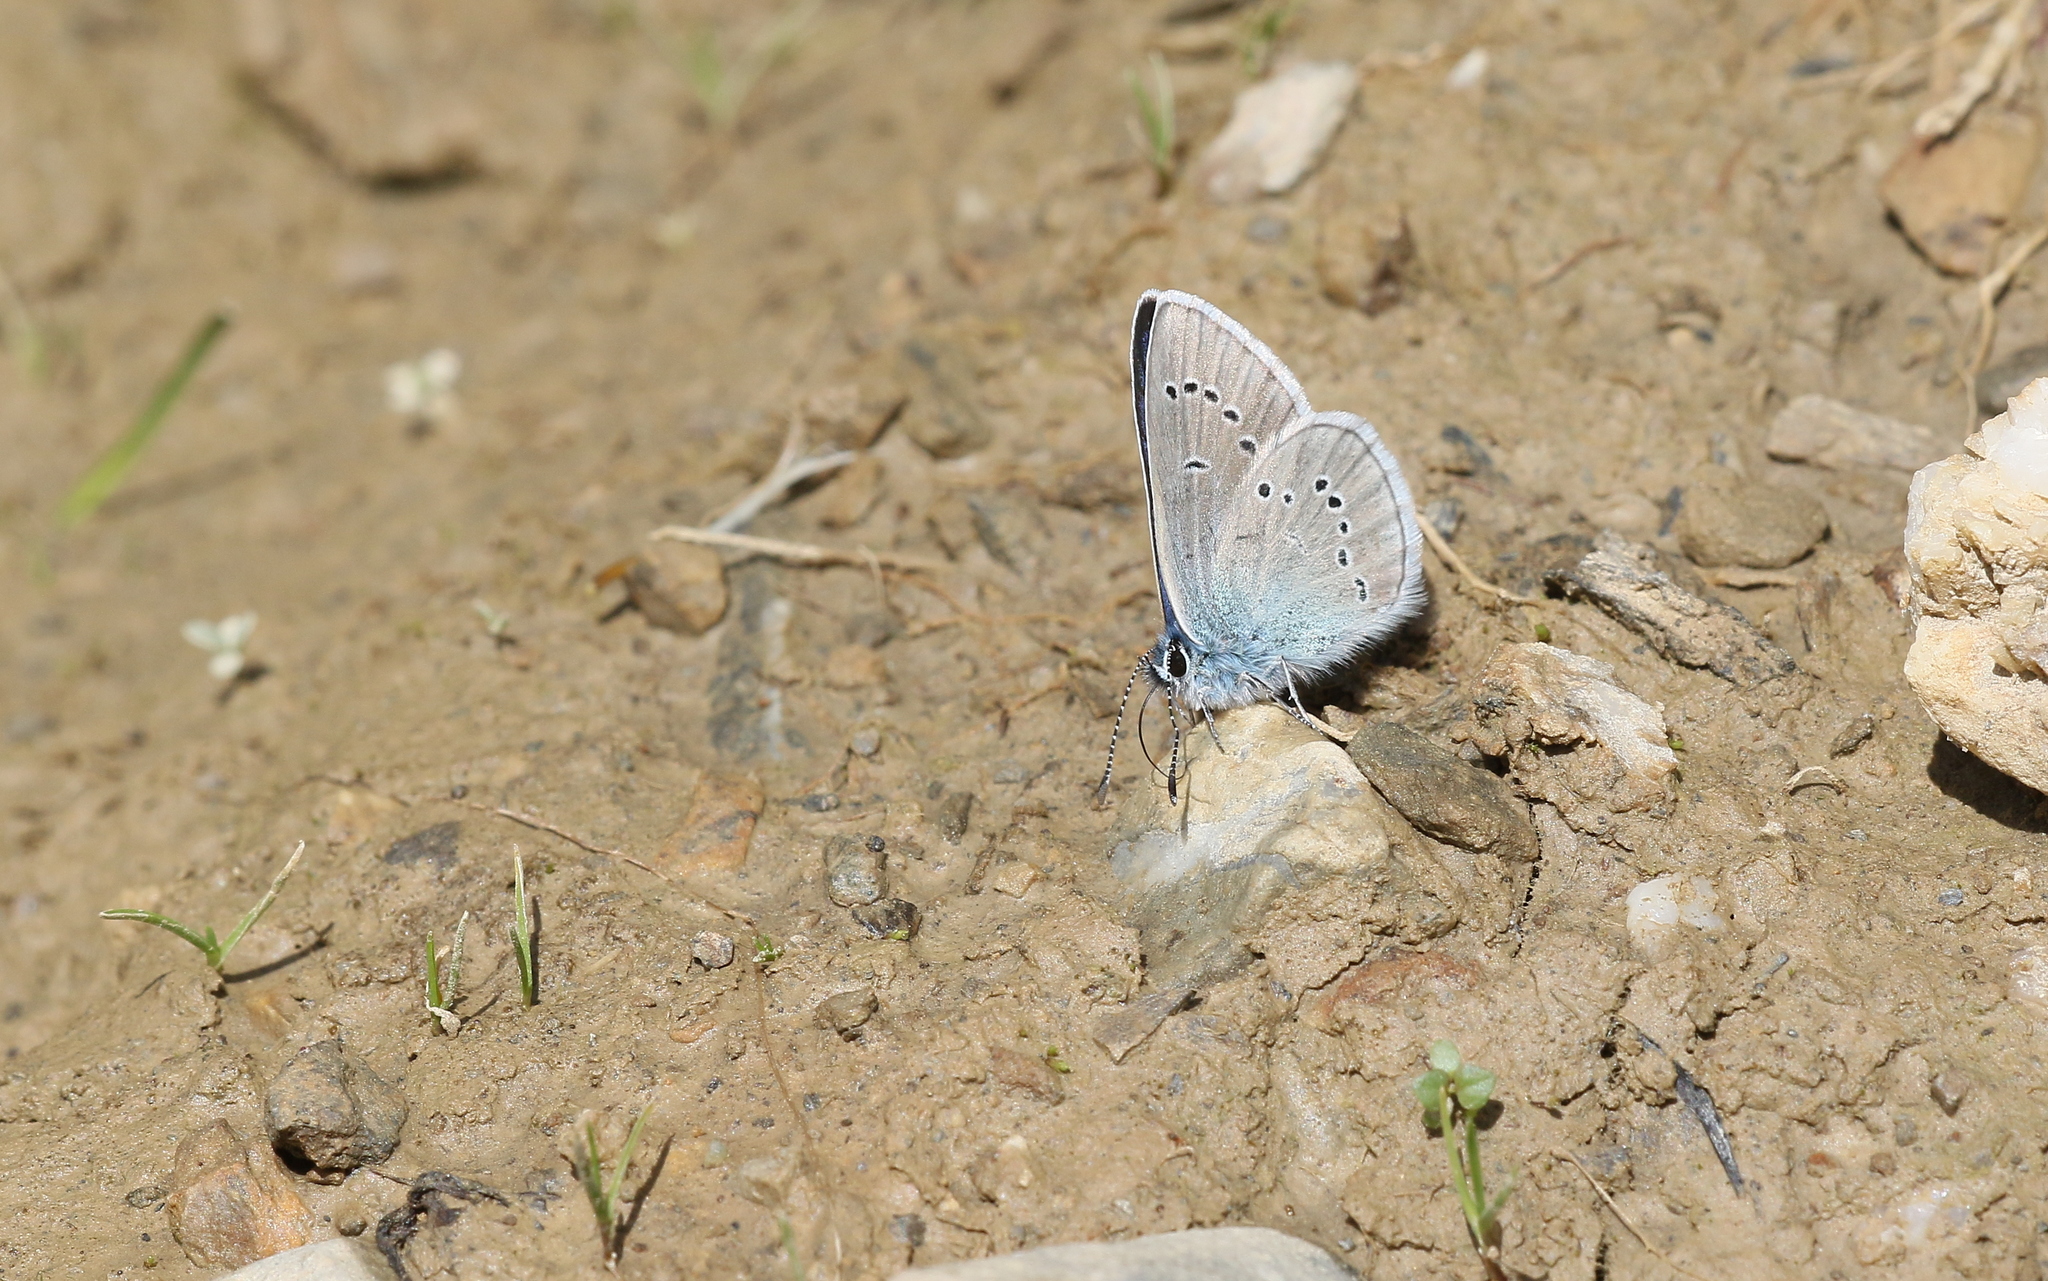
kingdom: Animalia
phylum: Arthropoda
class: Insecta
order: Lepidoptera
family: Lycaenidae
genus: Cyaniris
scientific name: Cyaniris semiargus
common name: Mazarine blue
